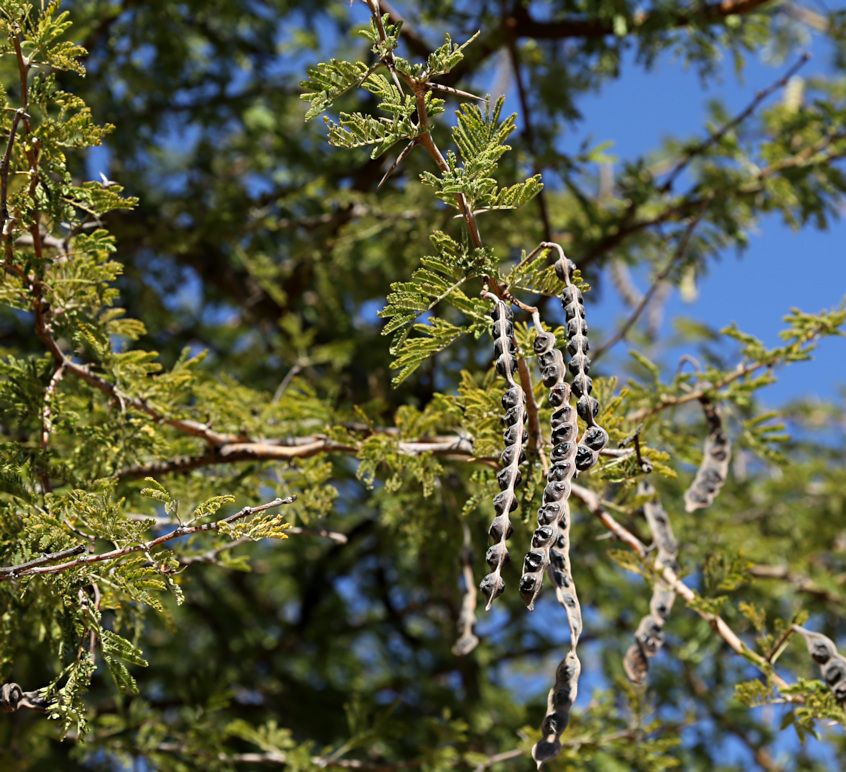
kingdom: Plantae
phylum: Tracheophyta
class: Magnoliopsida
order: Fabales
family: Fabaceae
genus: Vachellia
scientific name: Vachellia nilotica
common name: Arabic gumtree
